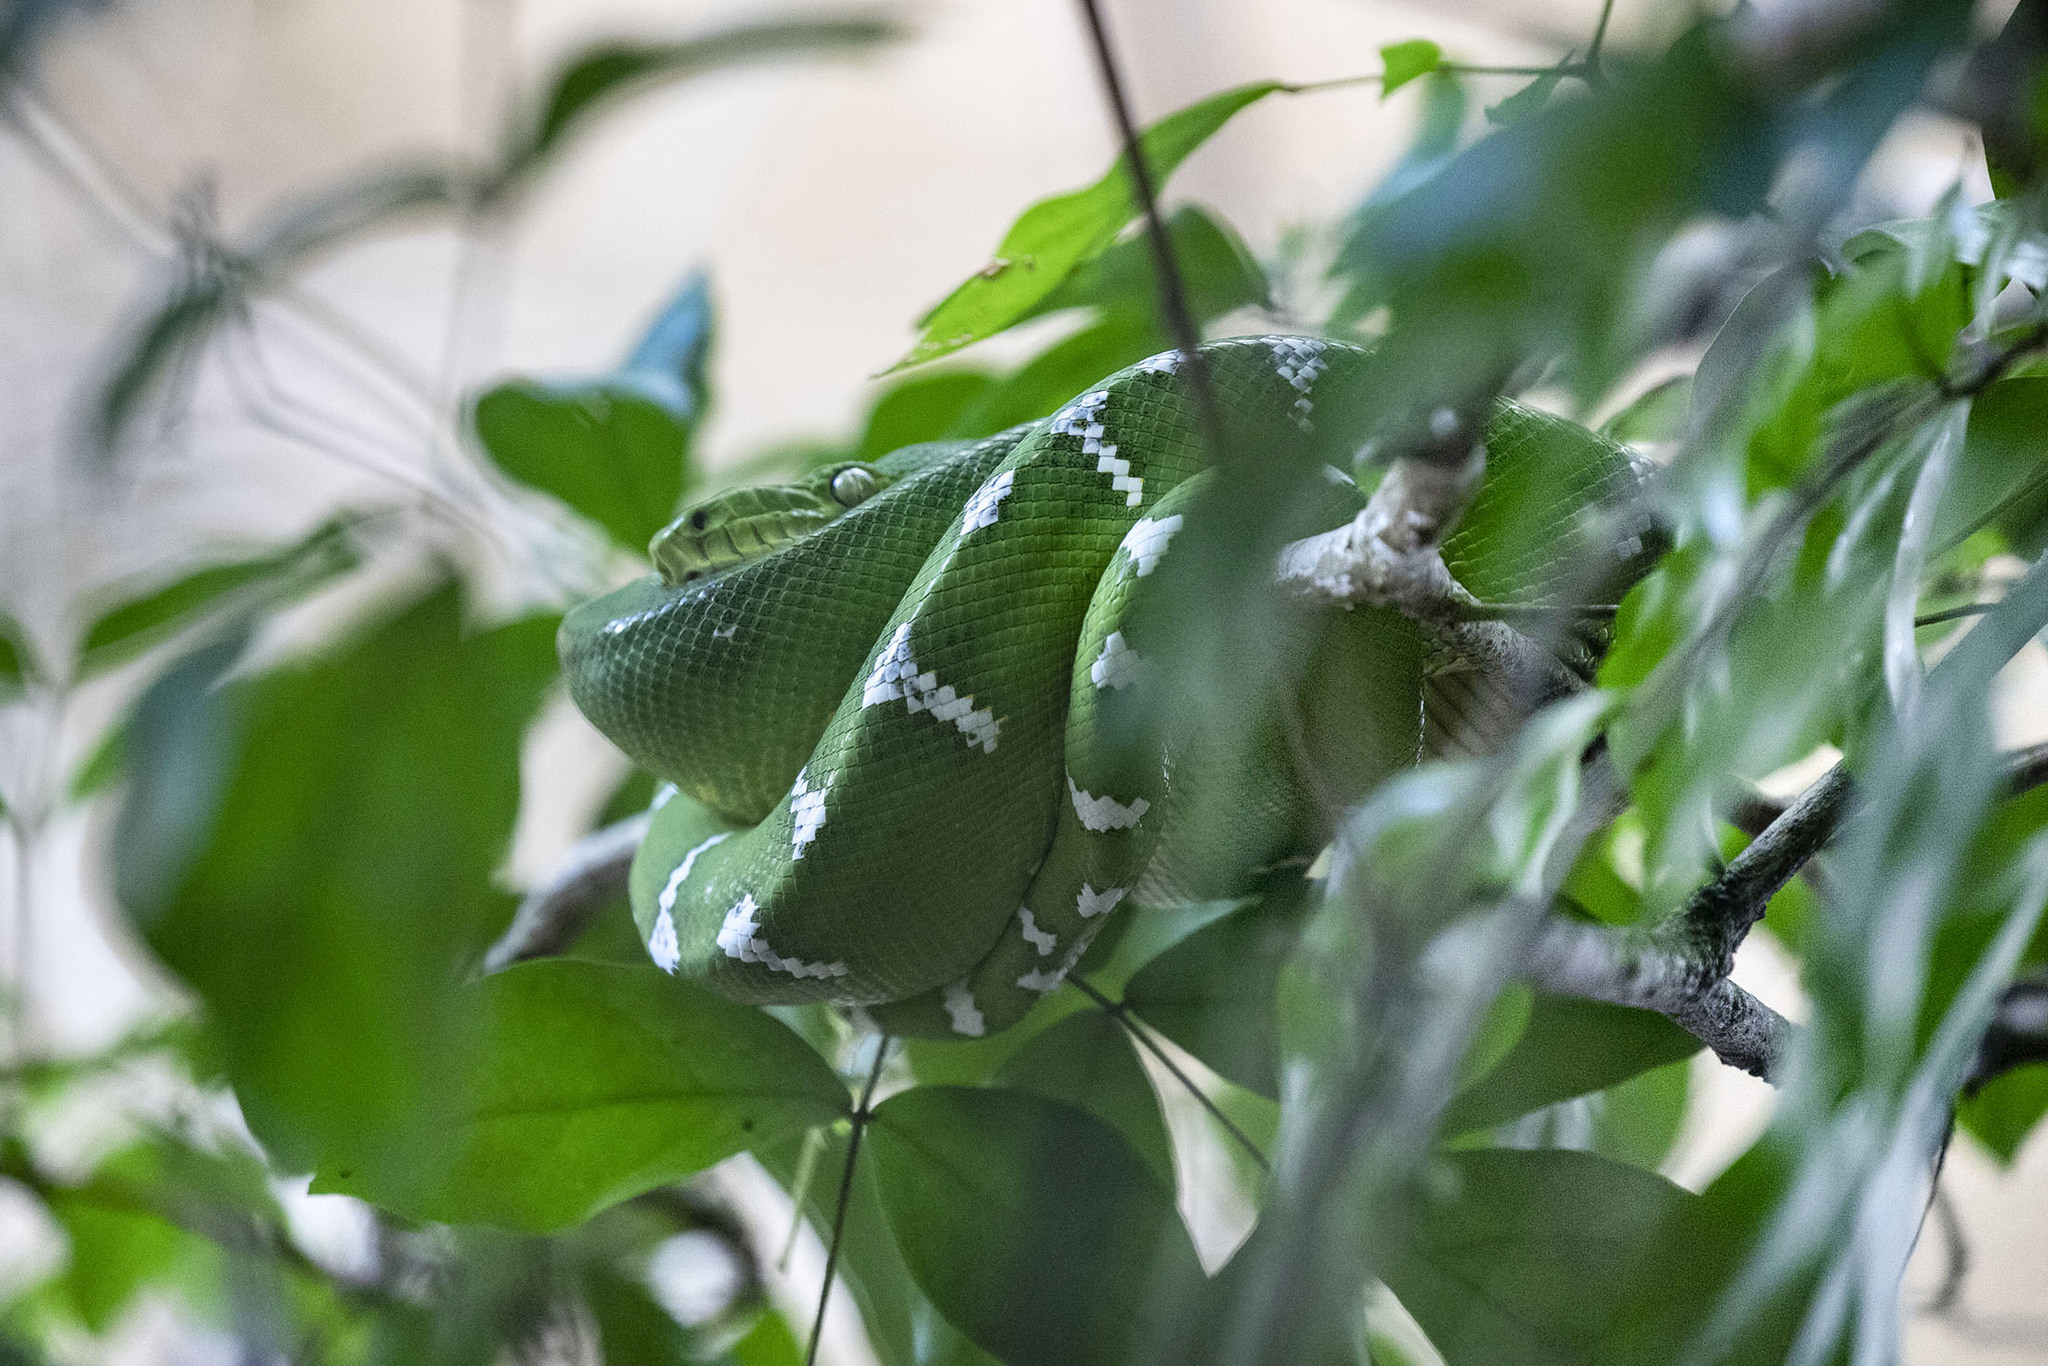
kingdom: Animalia
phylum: Chordata
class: Squamata
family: Boidae
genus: Corallus
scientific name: Corallus caninus
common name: Emerald tree boa
